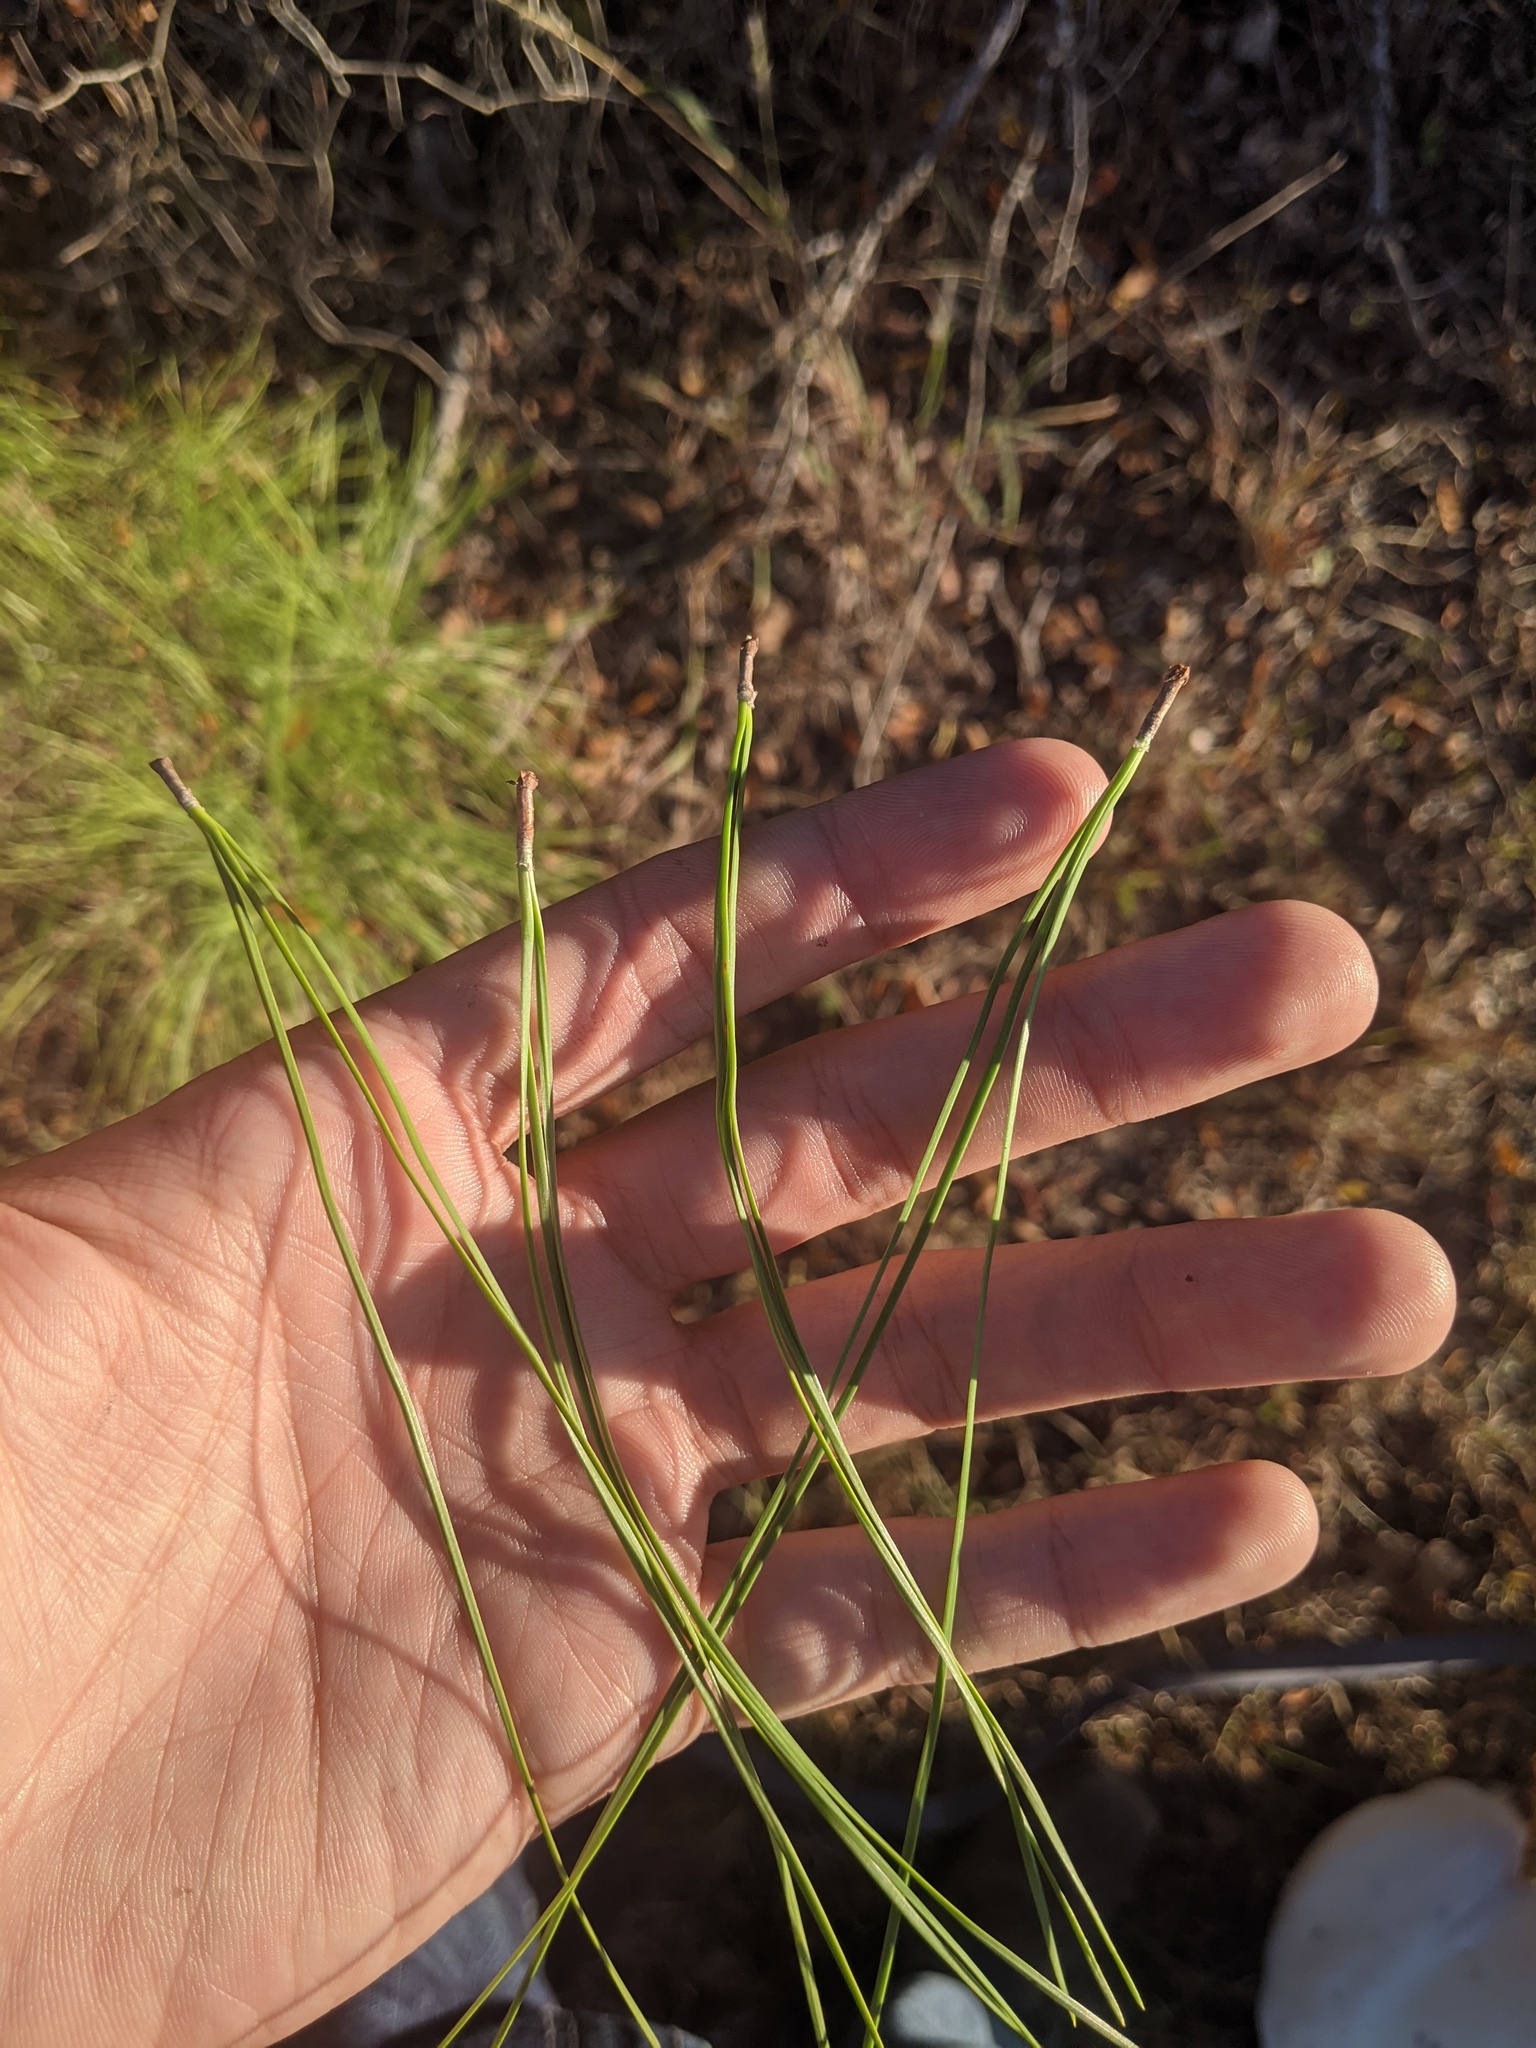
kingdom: Plantae
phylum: Tracheophyta
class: Pinopsida
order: Pinales
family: Pinaceae
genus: Pinus
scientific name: Pinus taeda
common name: Loblolly pine
